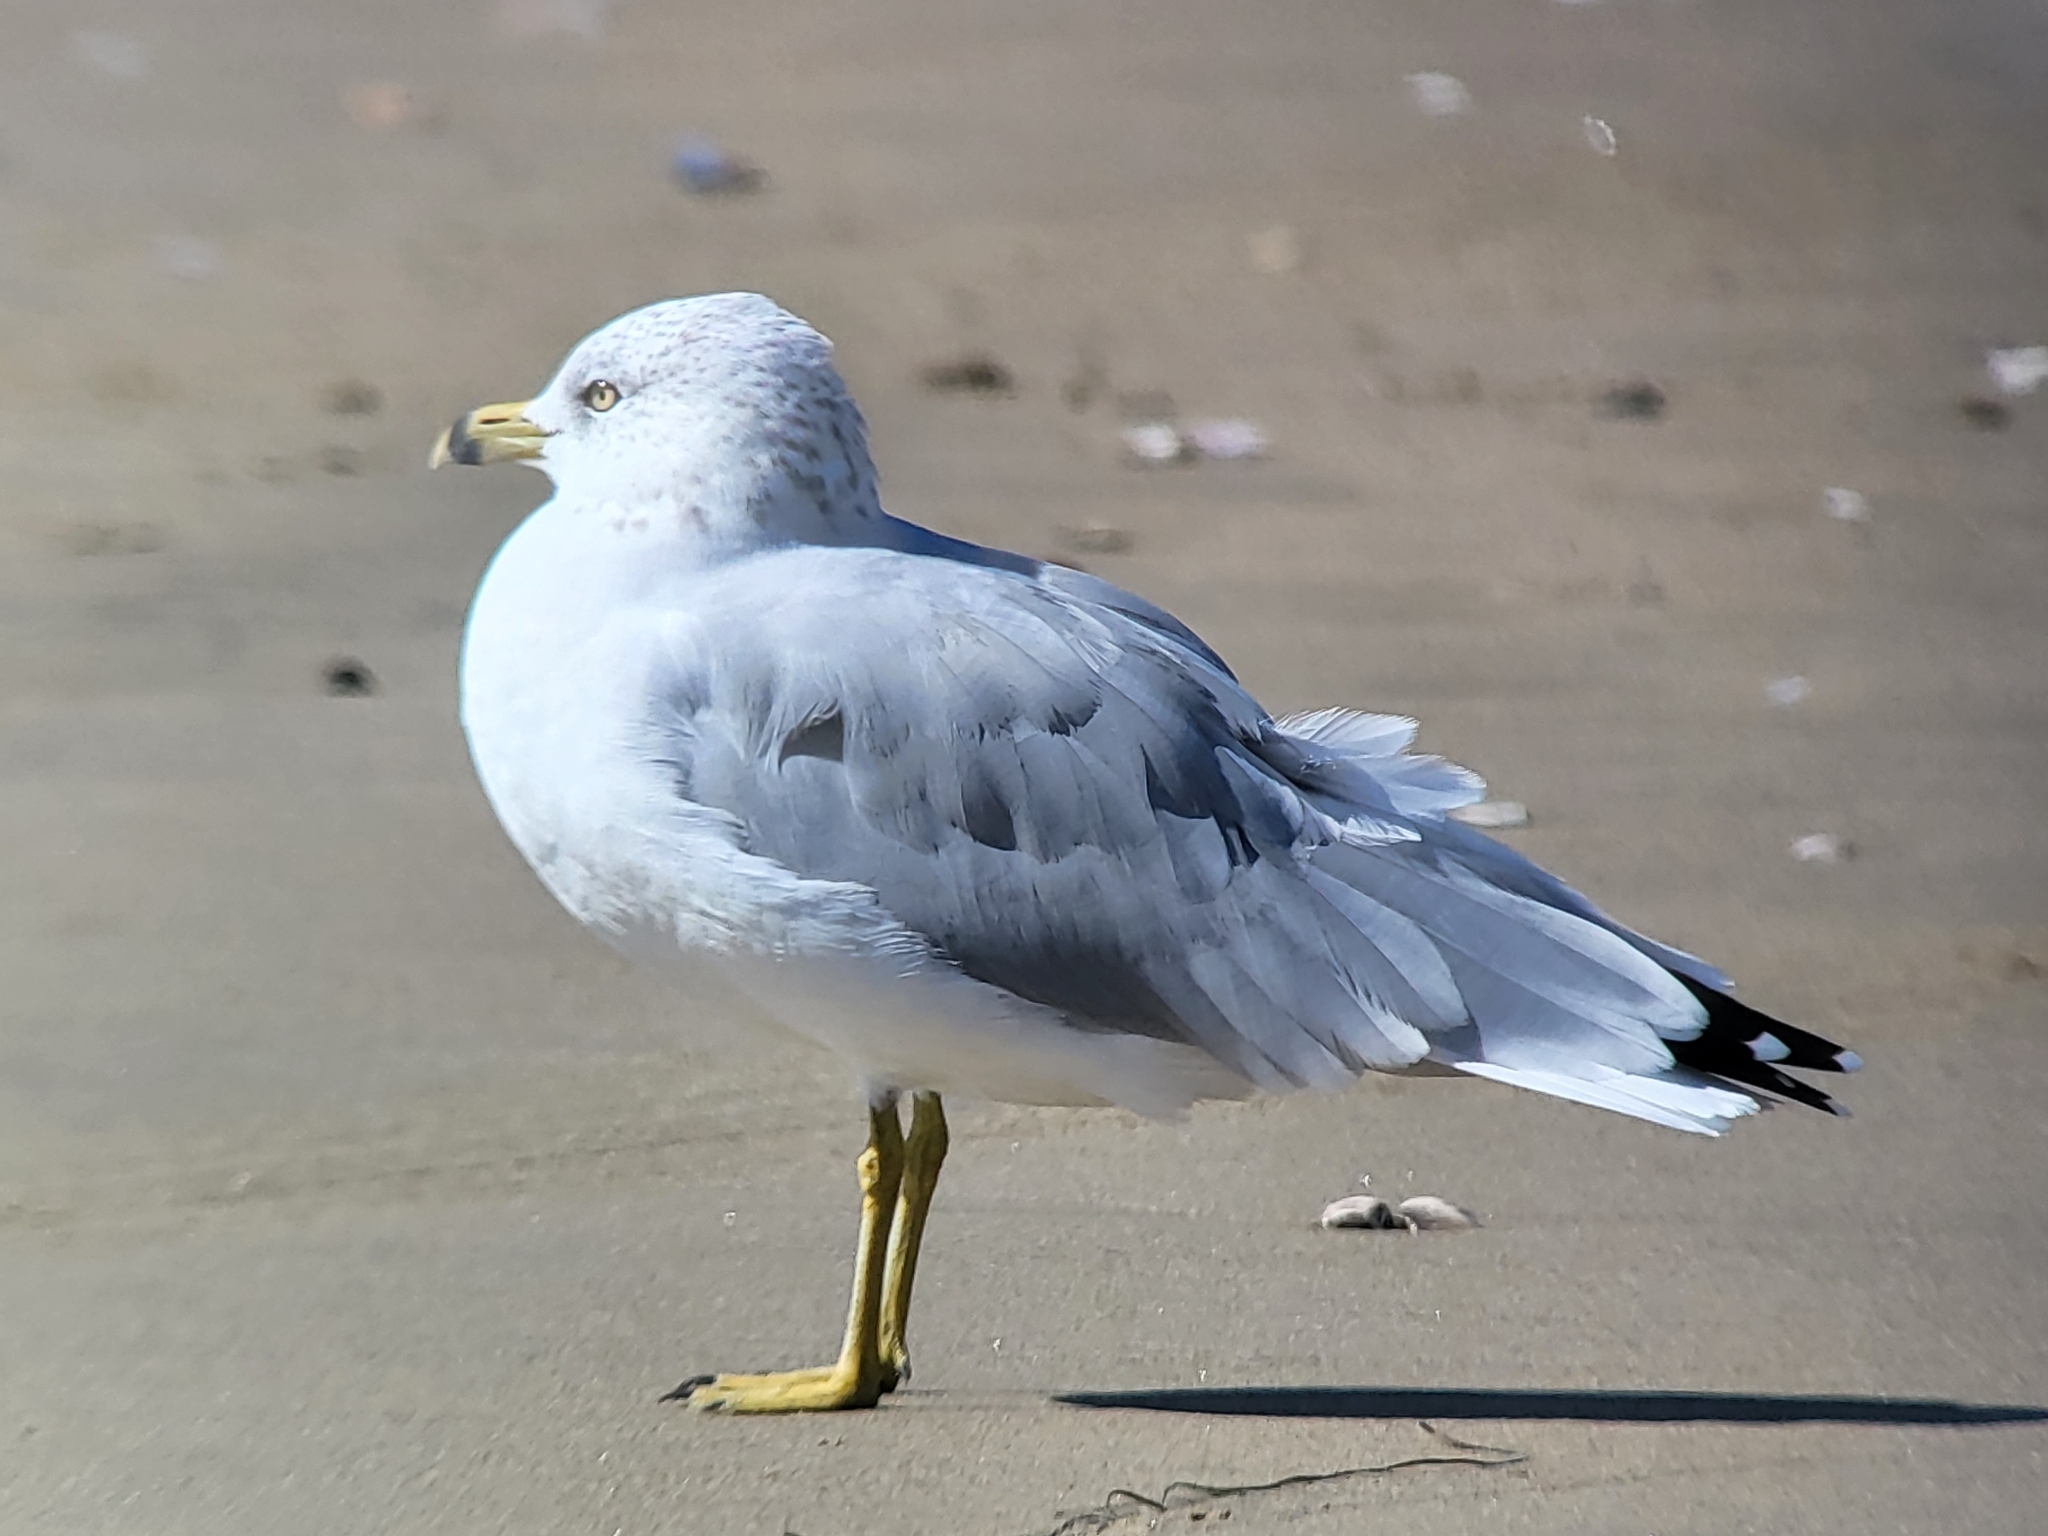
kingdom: Animalia
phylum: Chordata
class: Aves
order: Charadriiformes
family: Laridae
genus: Larus
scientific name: Larus delawarensis
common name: Ring-billed gull
